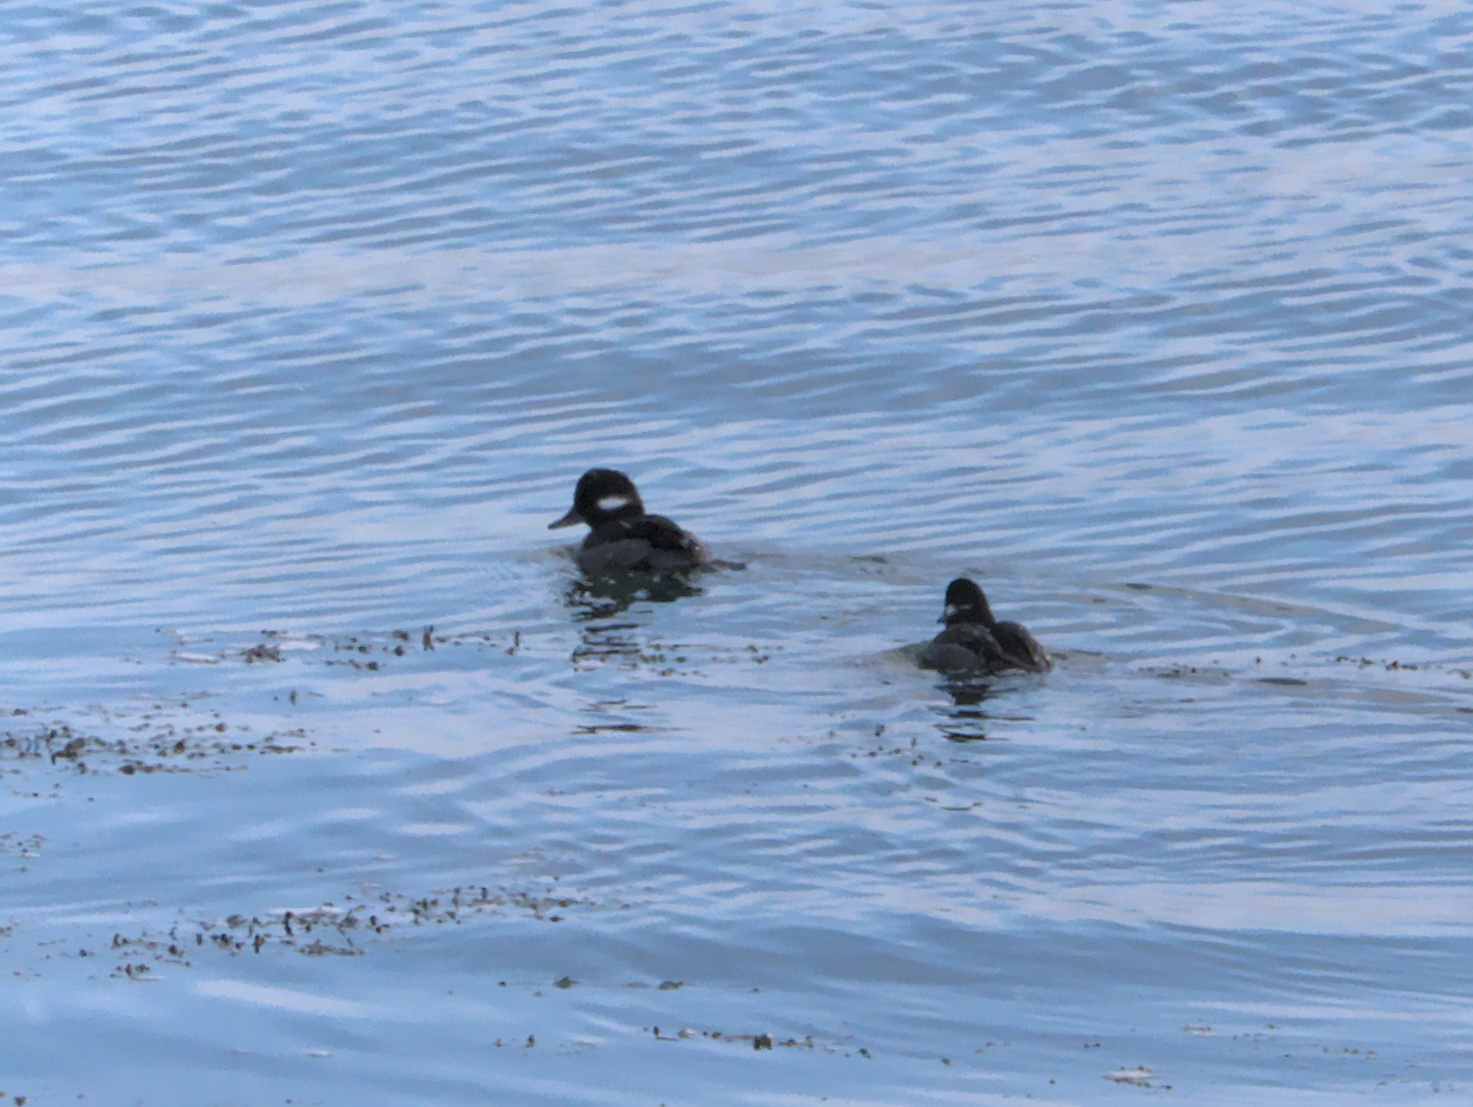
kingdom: Animalia
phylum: Chordata
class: Aves
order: Anseriformes
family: Anatidae
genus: Bucephala
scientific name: Bucephala albeola
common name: Bufflehead
